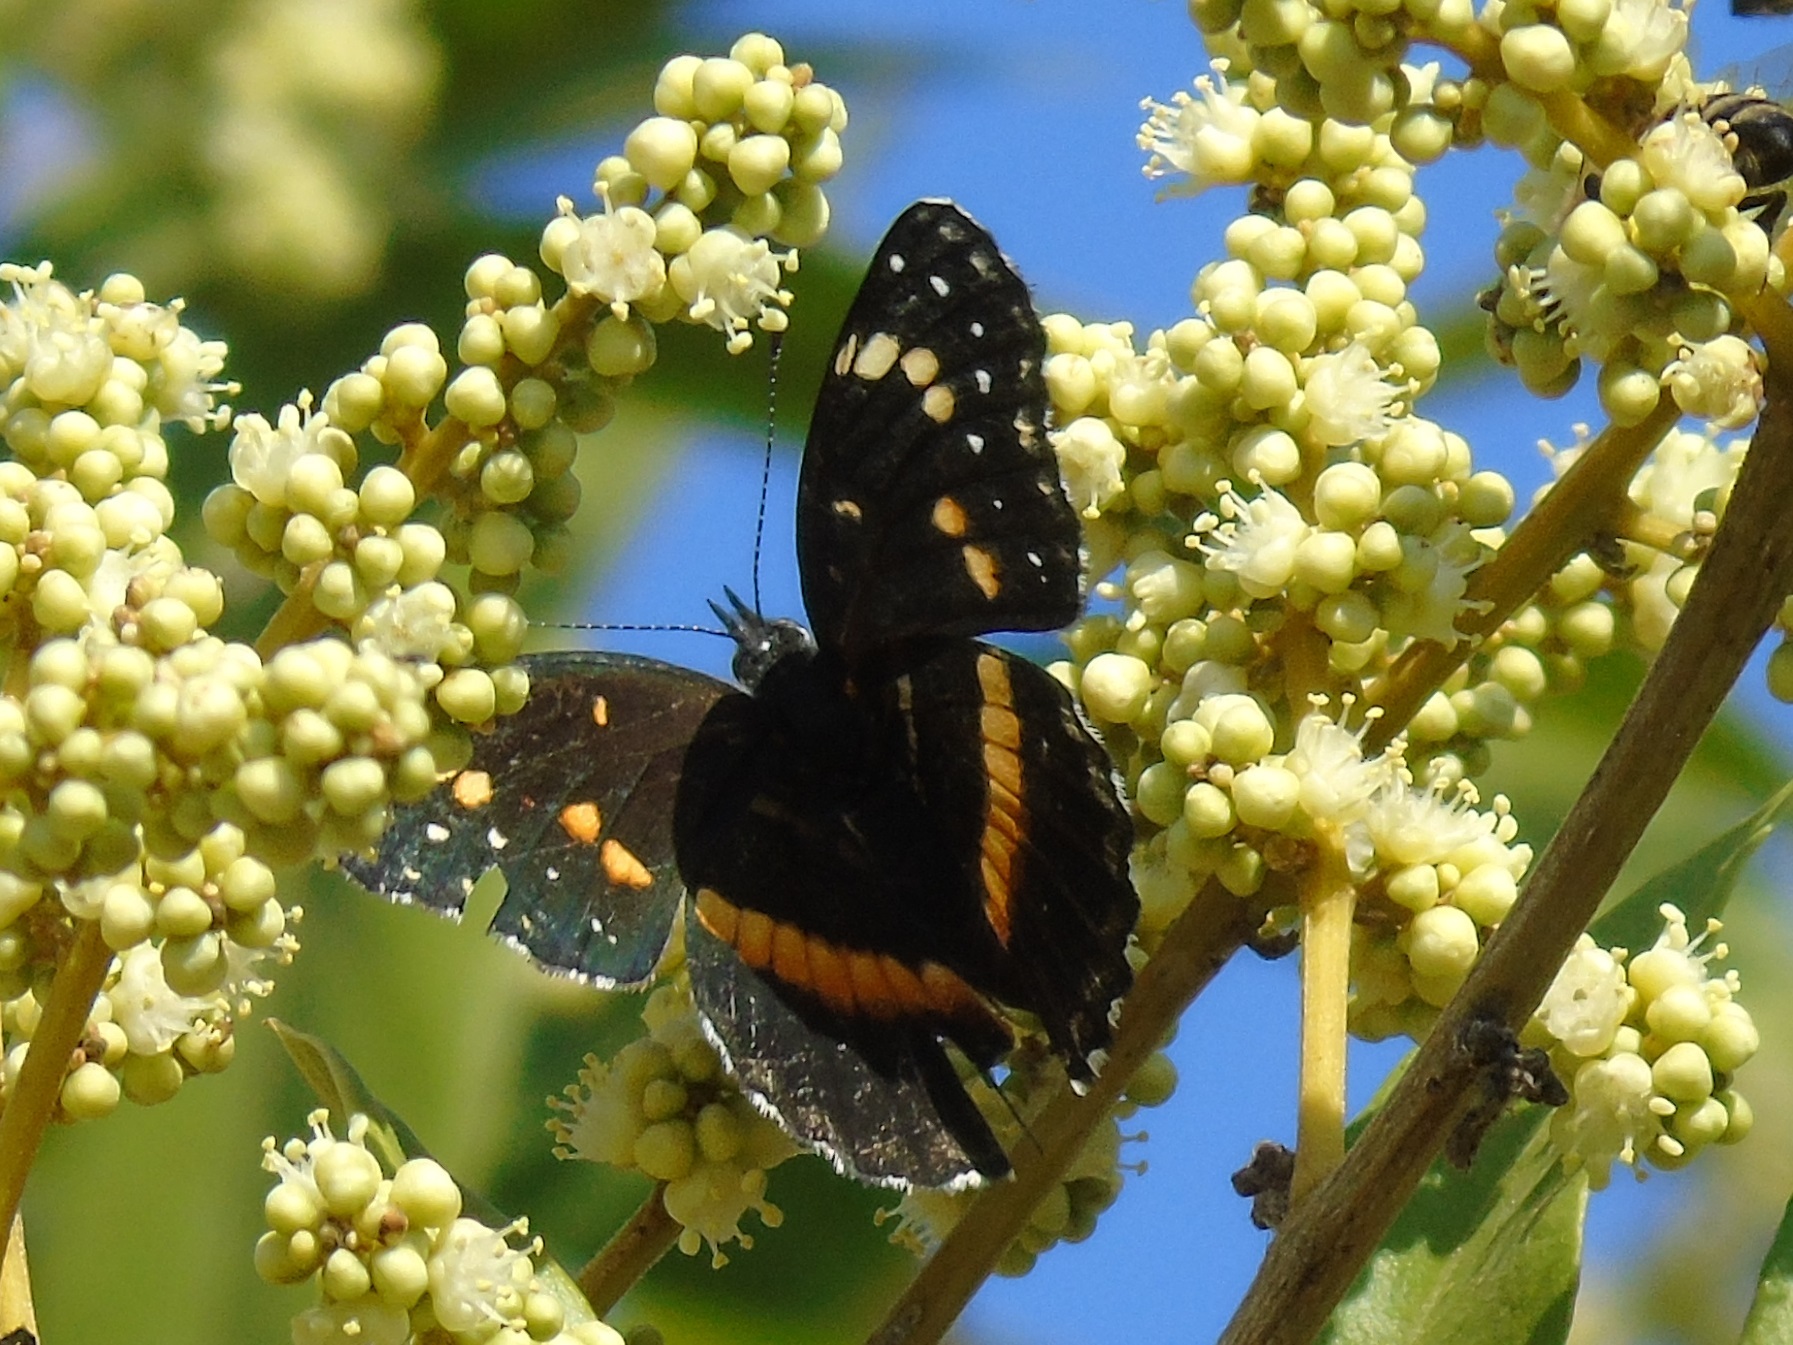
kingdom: Animalia
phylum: Arthropoda
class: Insecta
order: Lepidoptera
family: Nymphalidae
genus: Chlosyne
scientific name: Chlosyne lacinia
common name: Bordered patch
